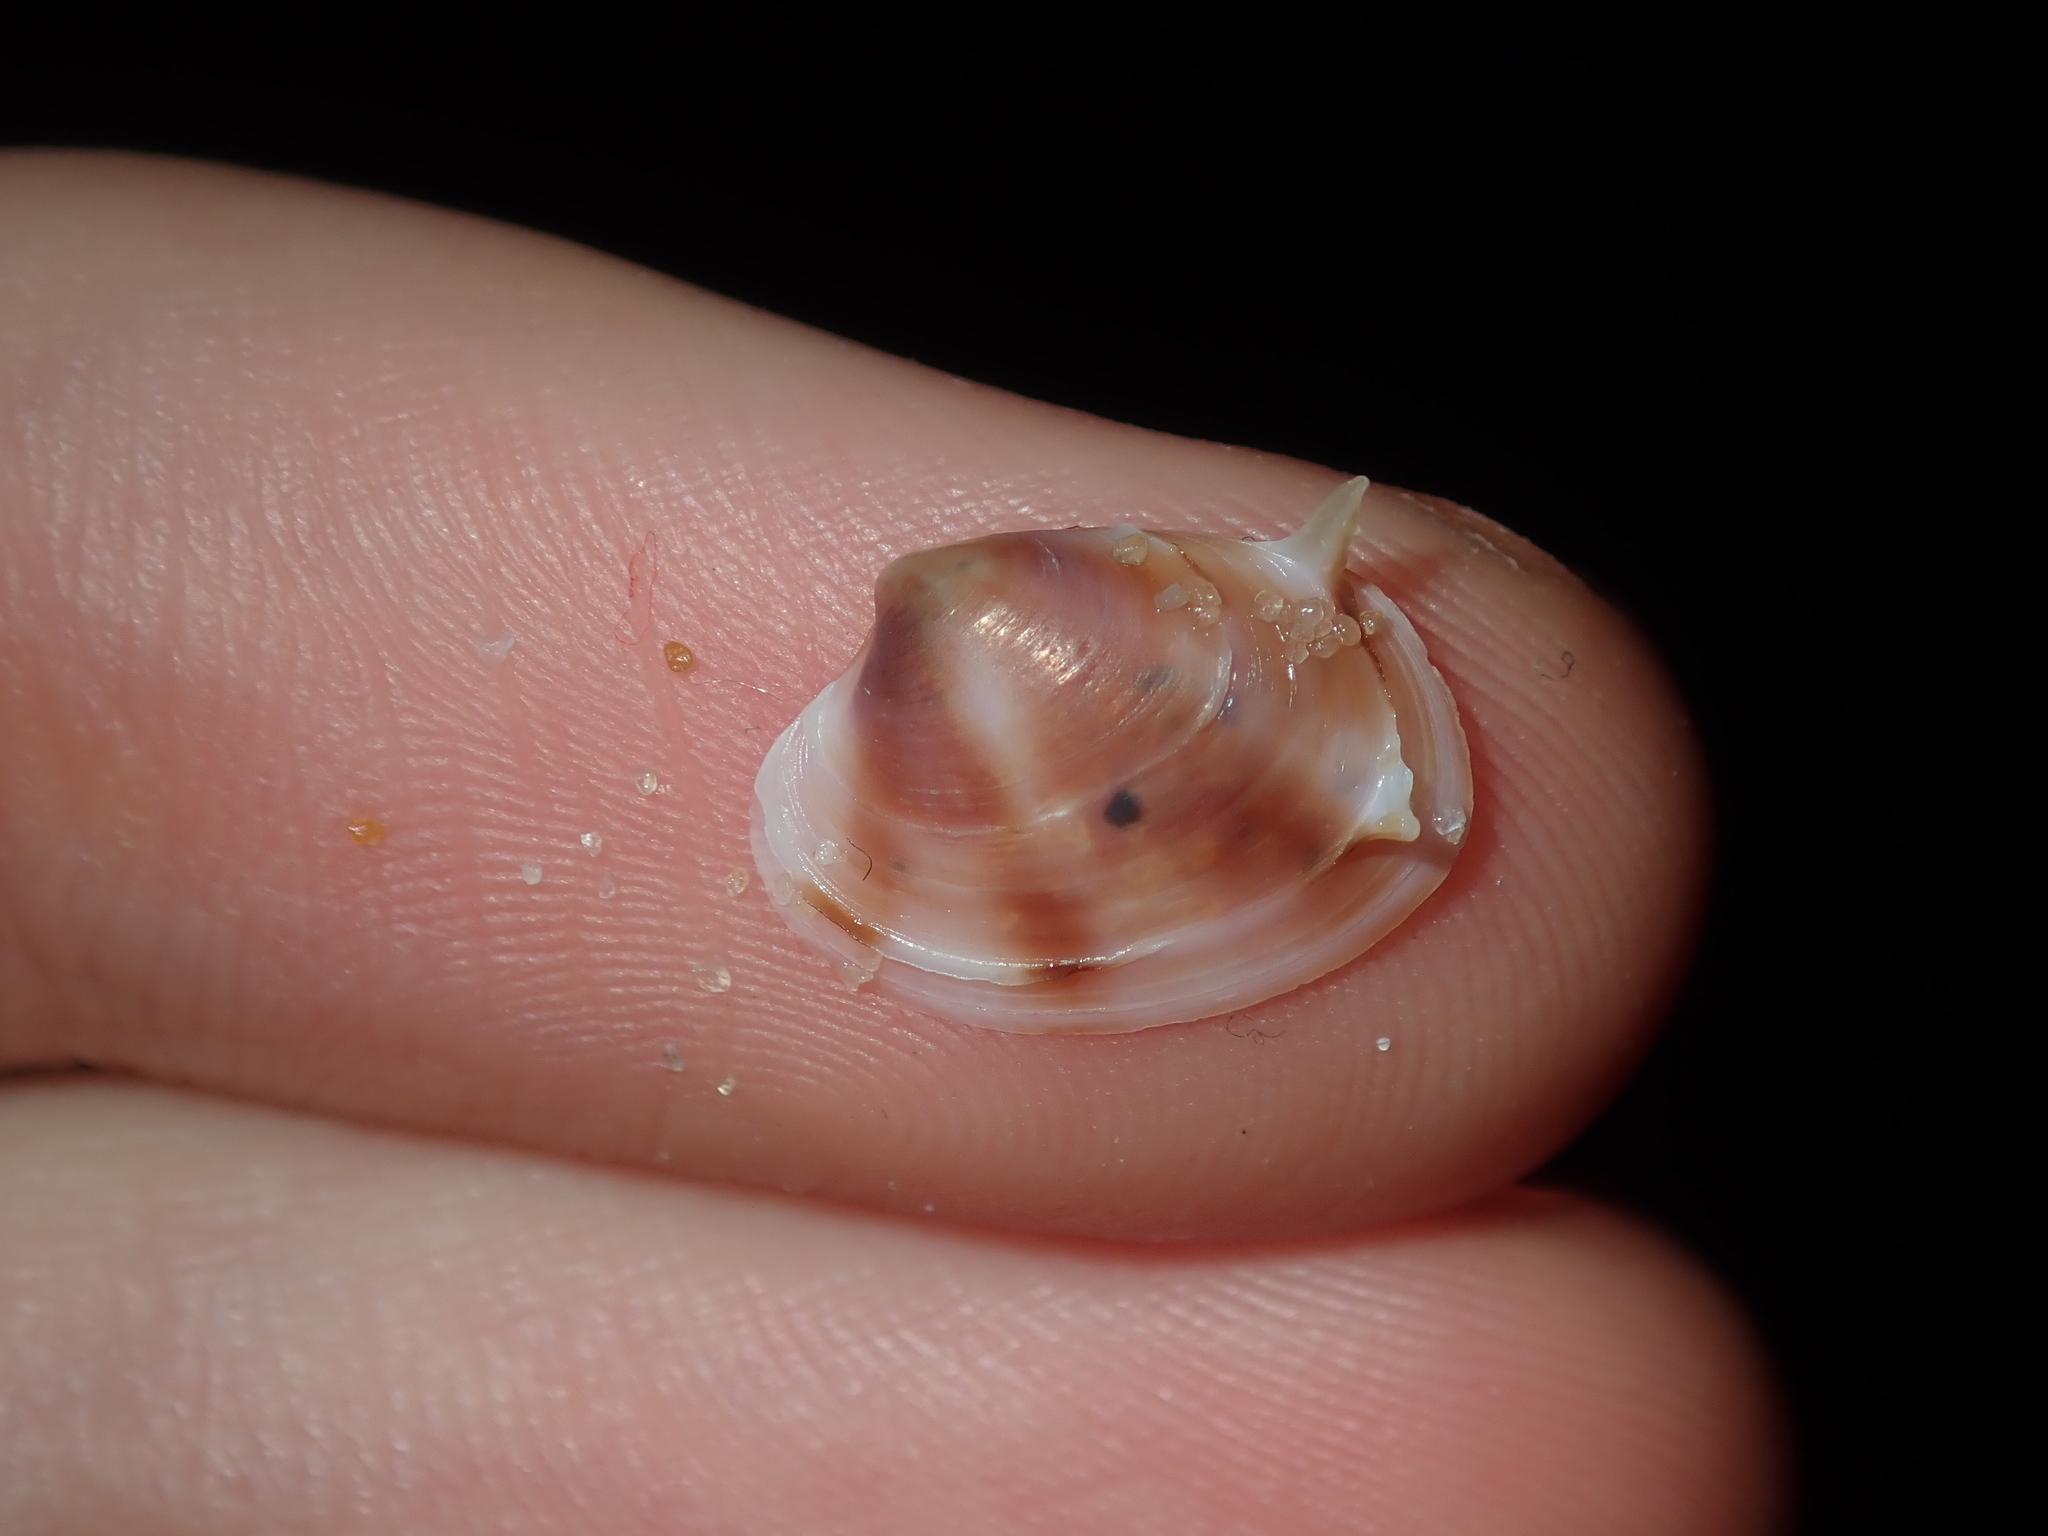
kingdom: Animalia
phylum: Mollusca
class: Bivalvia
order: Venerida
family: Veneridae
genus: Bassina
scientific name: Bassina jacksonii
